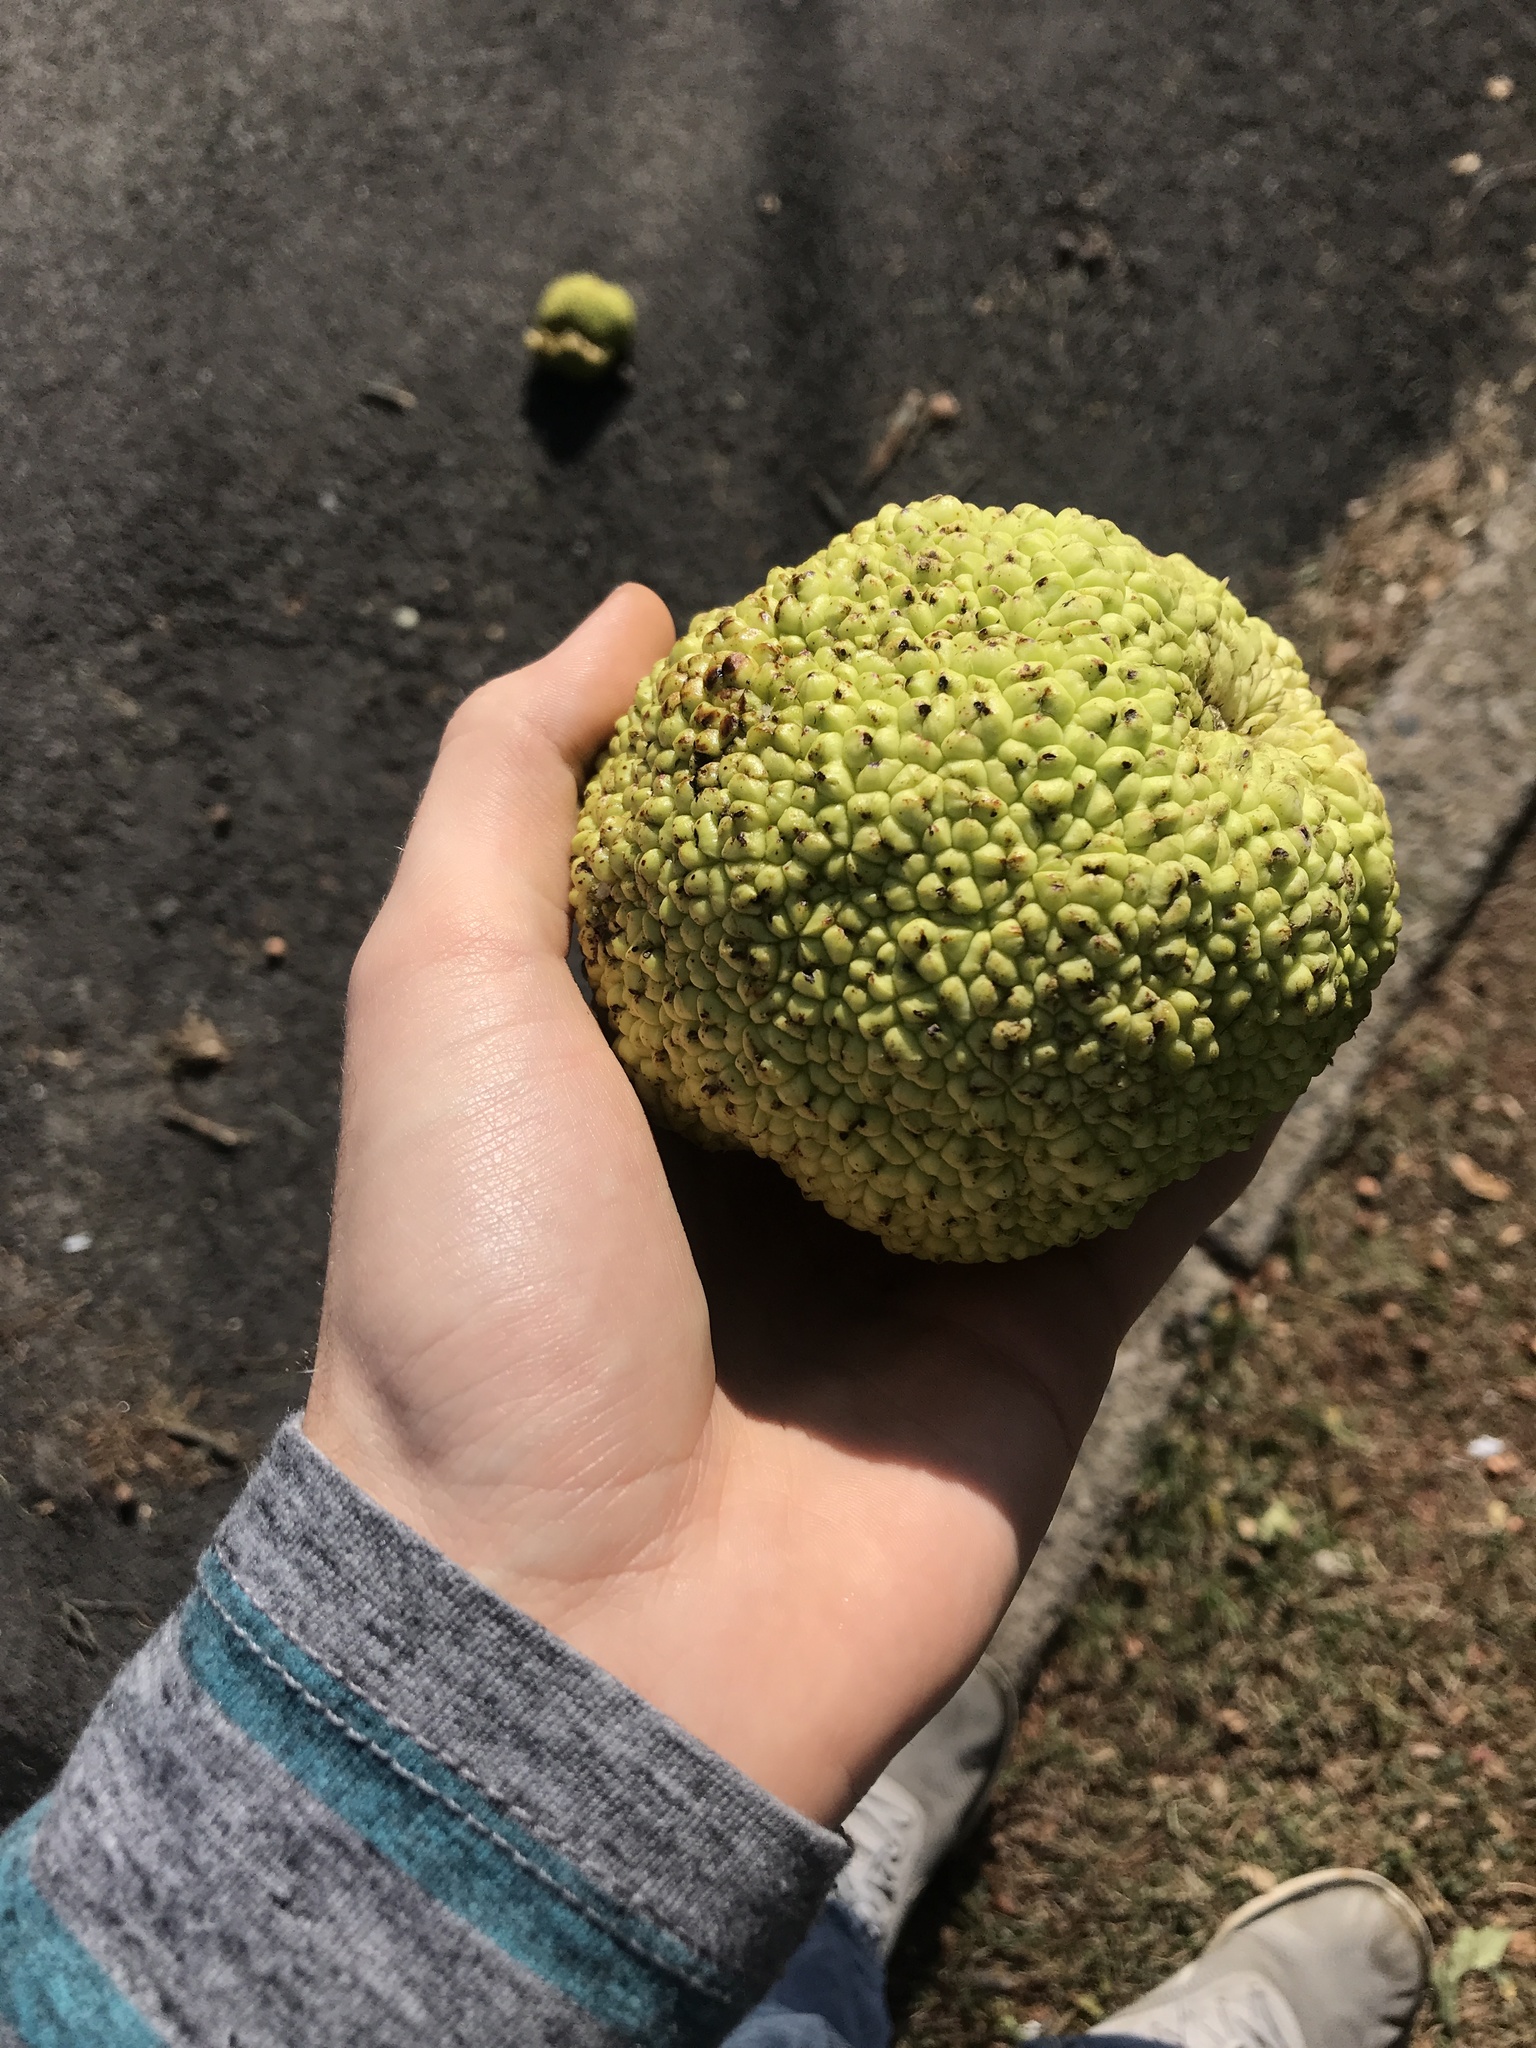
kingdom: Plantae
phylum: Tracheophyta
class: Magnoliopsida
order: Rosales
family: Moraceae
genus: Maclura
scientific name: Maclura pomifera
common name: Osage-orange
